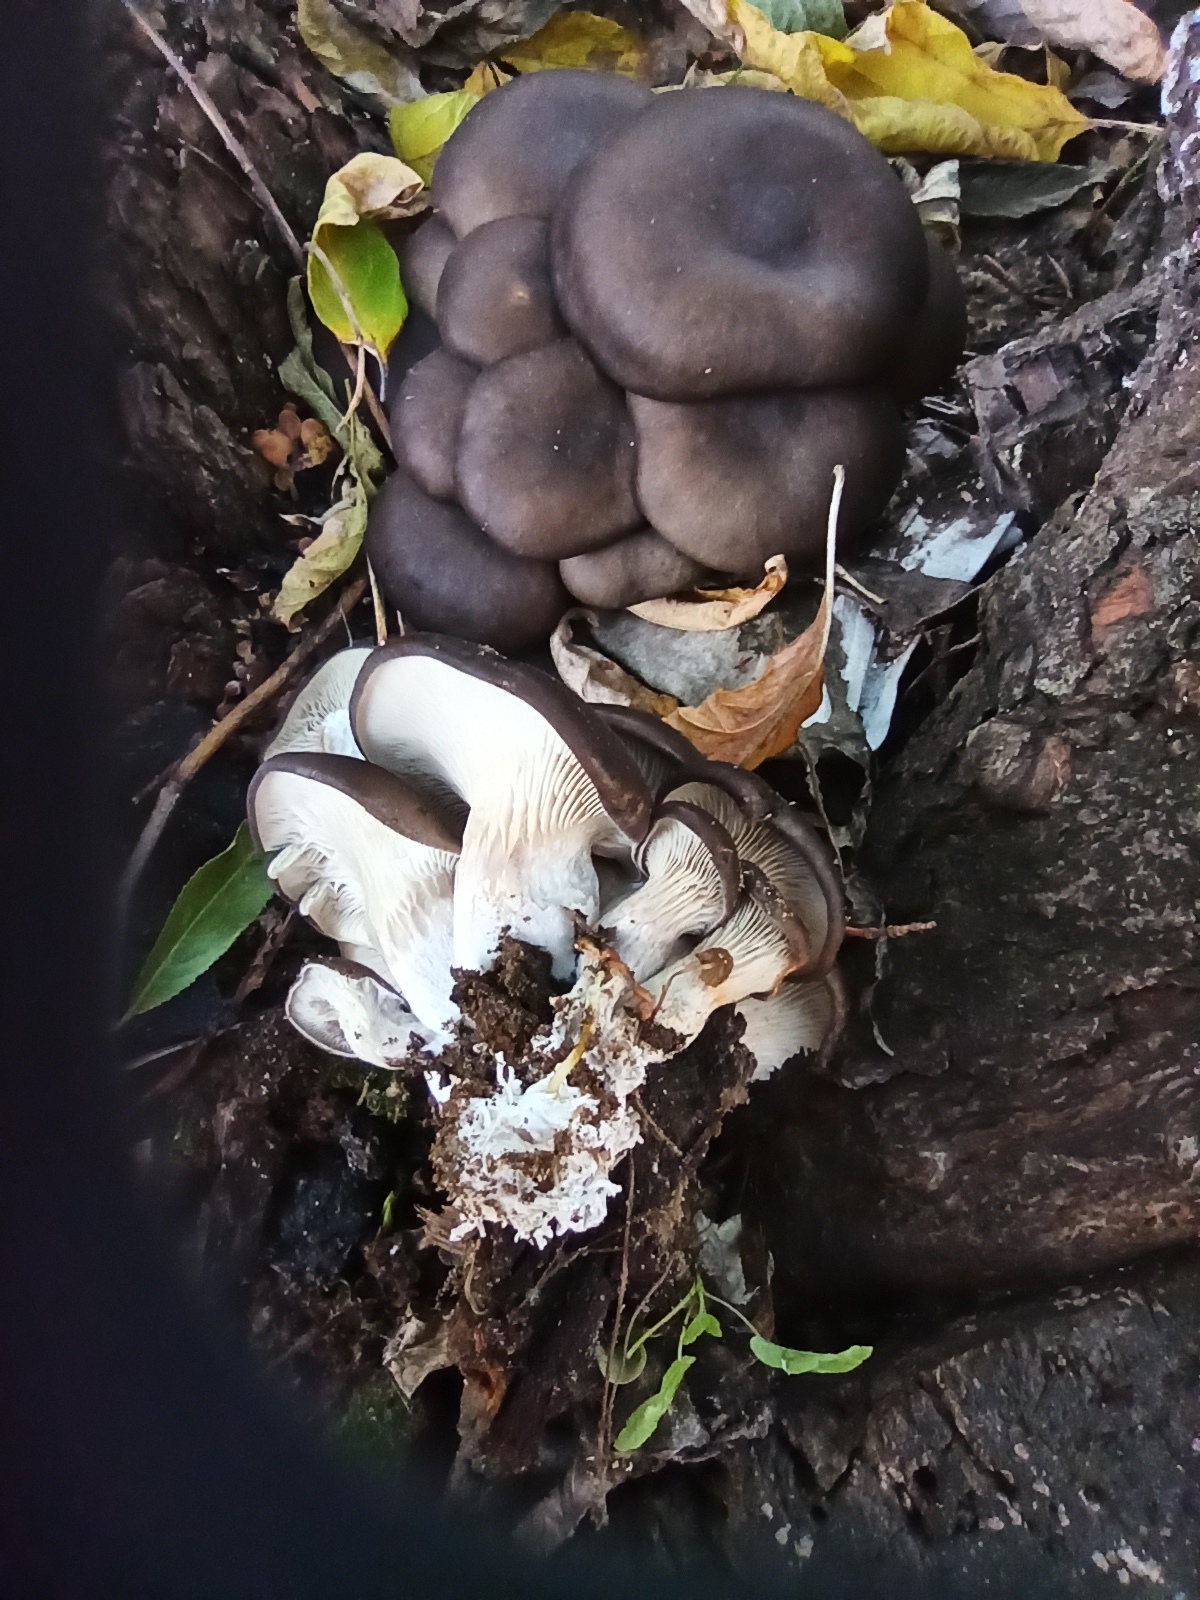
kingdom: Fungi
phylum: Basidiomycota
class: Agaricomycetes
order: Agaricales
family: Pleurotaceae
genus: Pleurotus
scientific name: Pleurotus ostreatus
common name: Oyster mushroom
